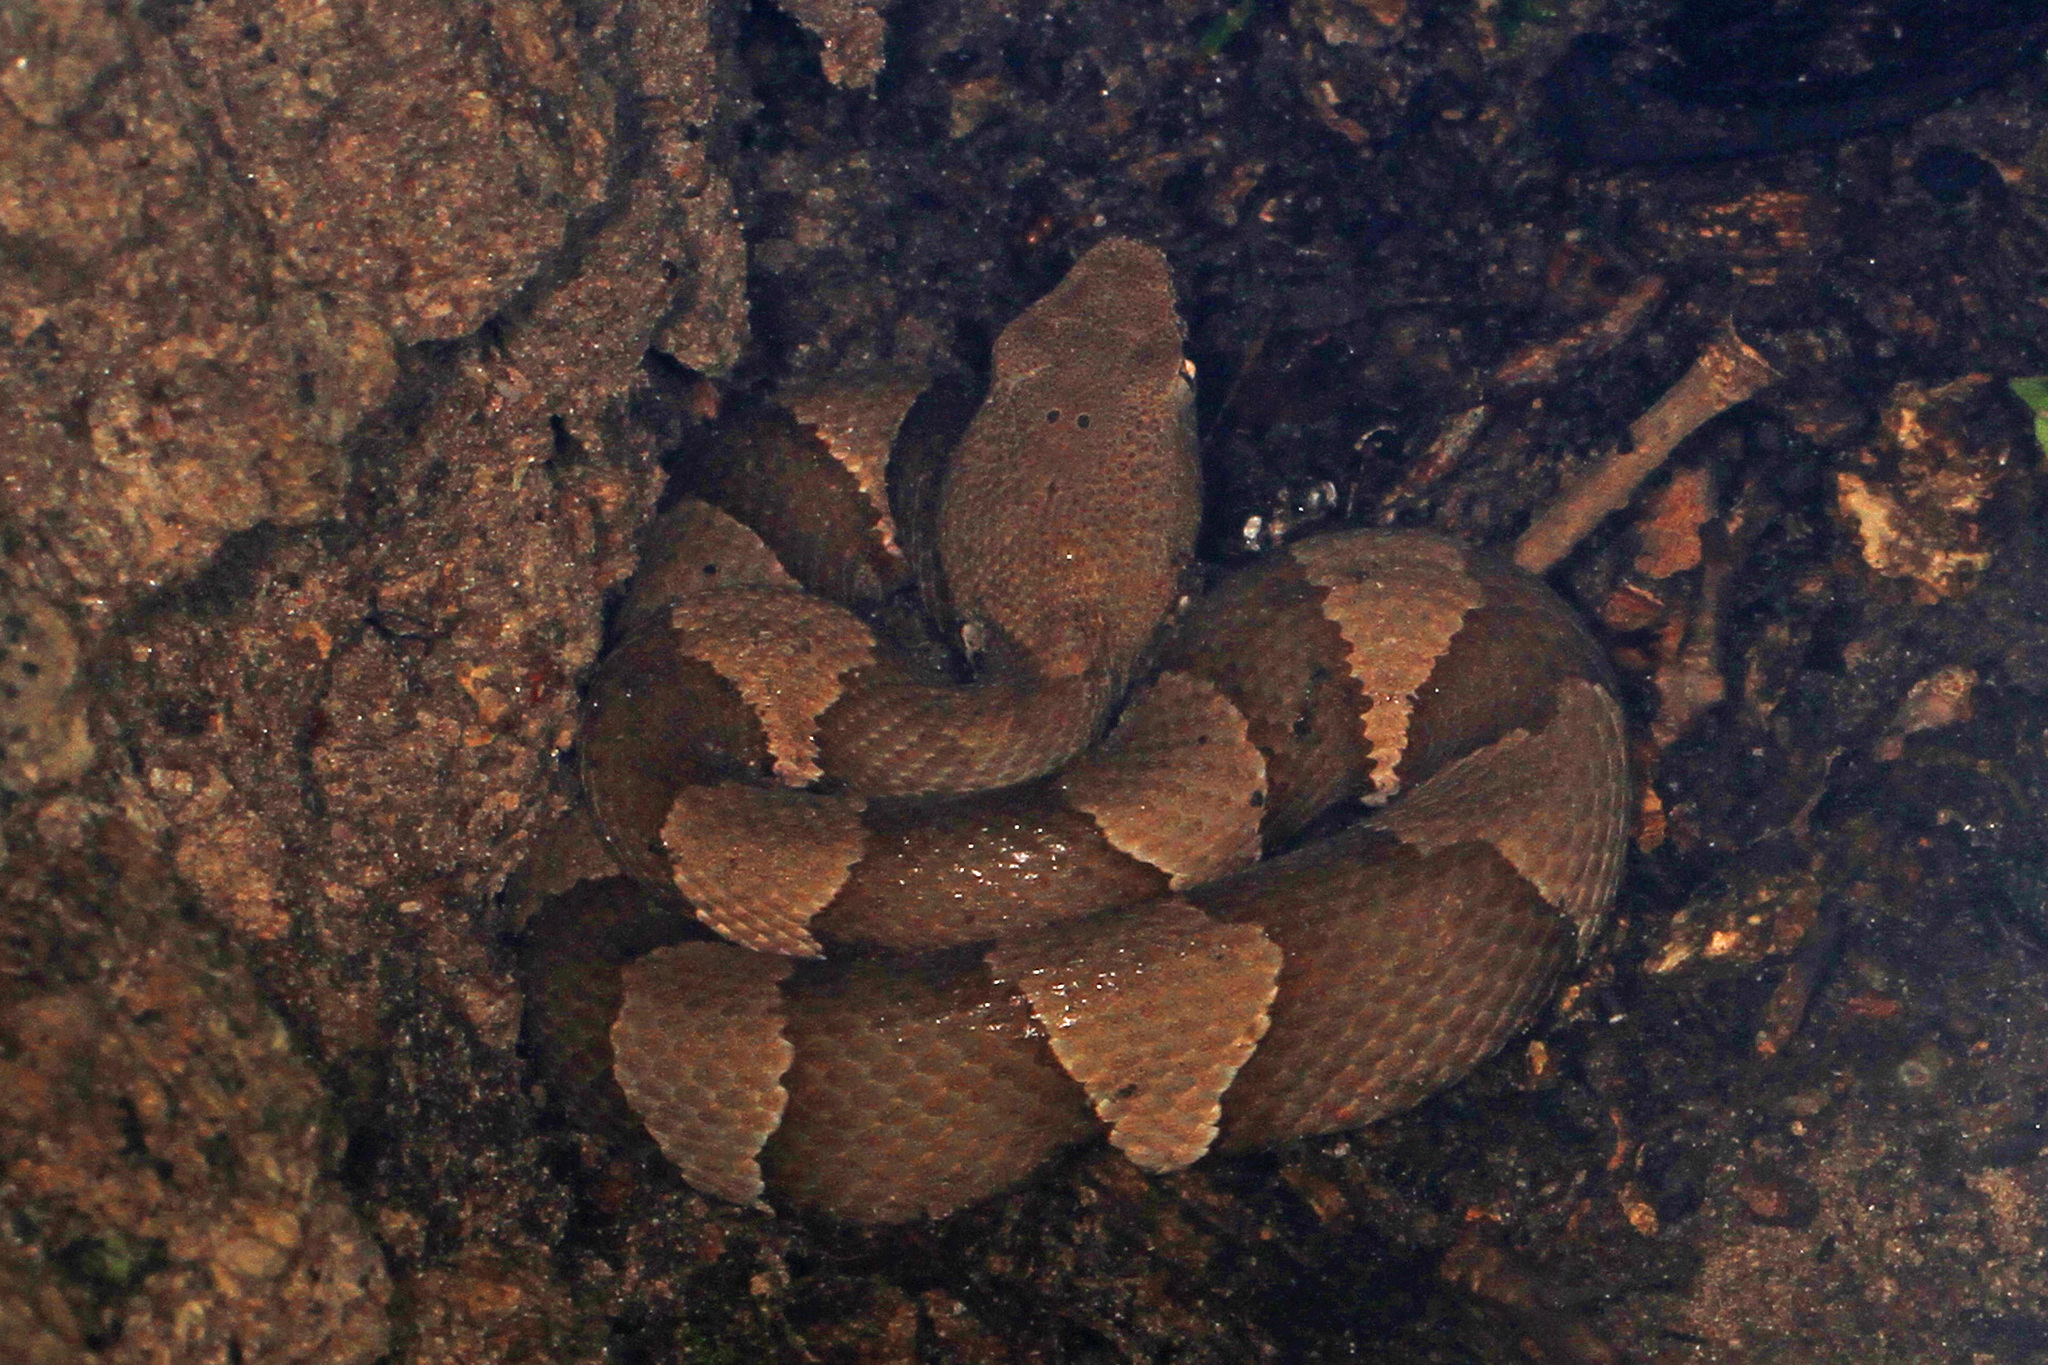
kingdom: Animalia
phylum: Chordata
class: Squamata
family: Viperidae
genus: Agkistrodon
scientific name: Agkistrodon laticinctus
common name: Broad-banded copperhead
